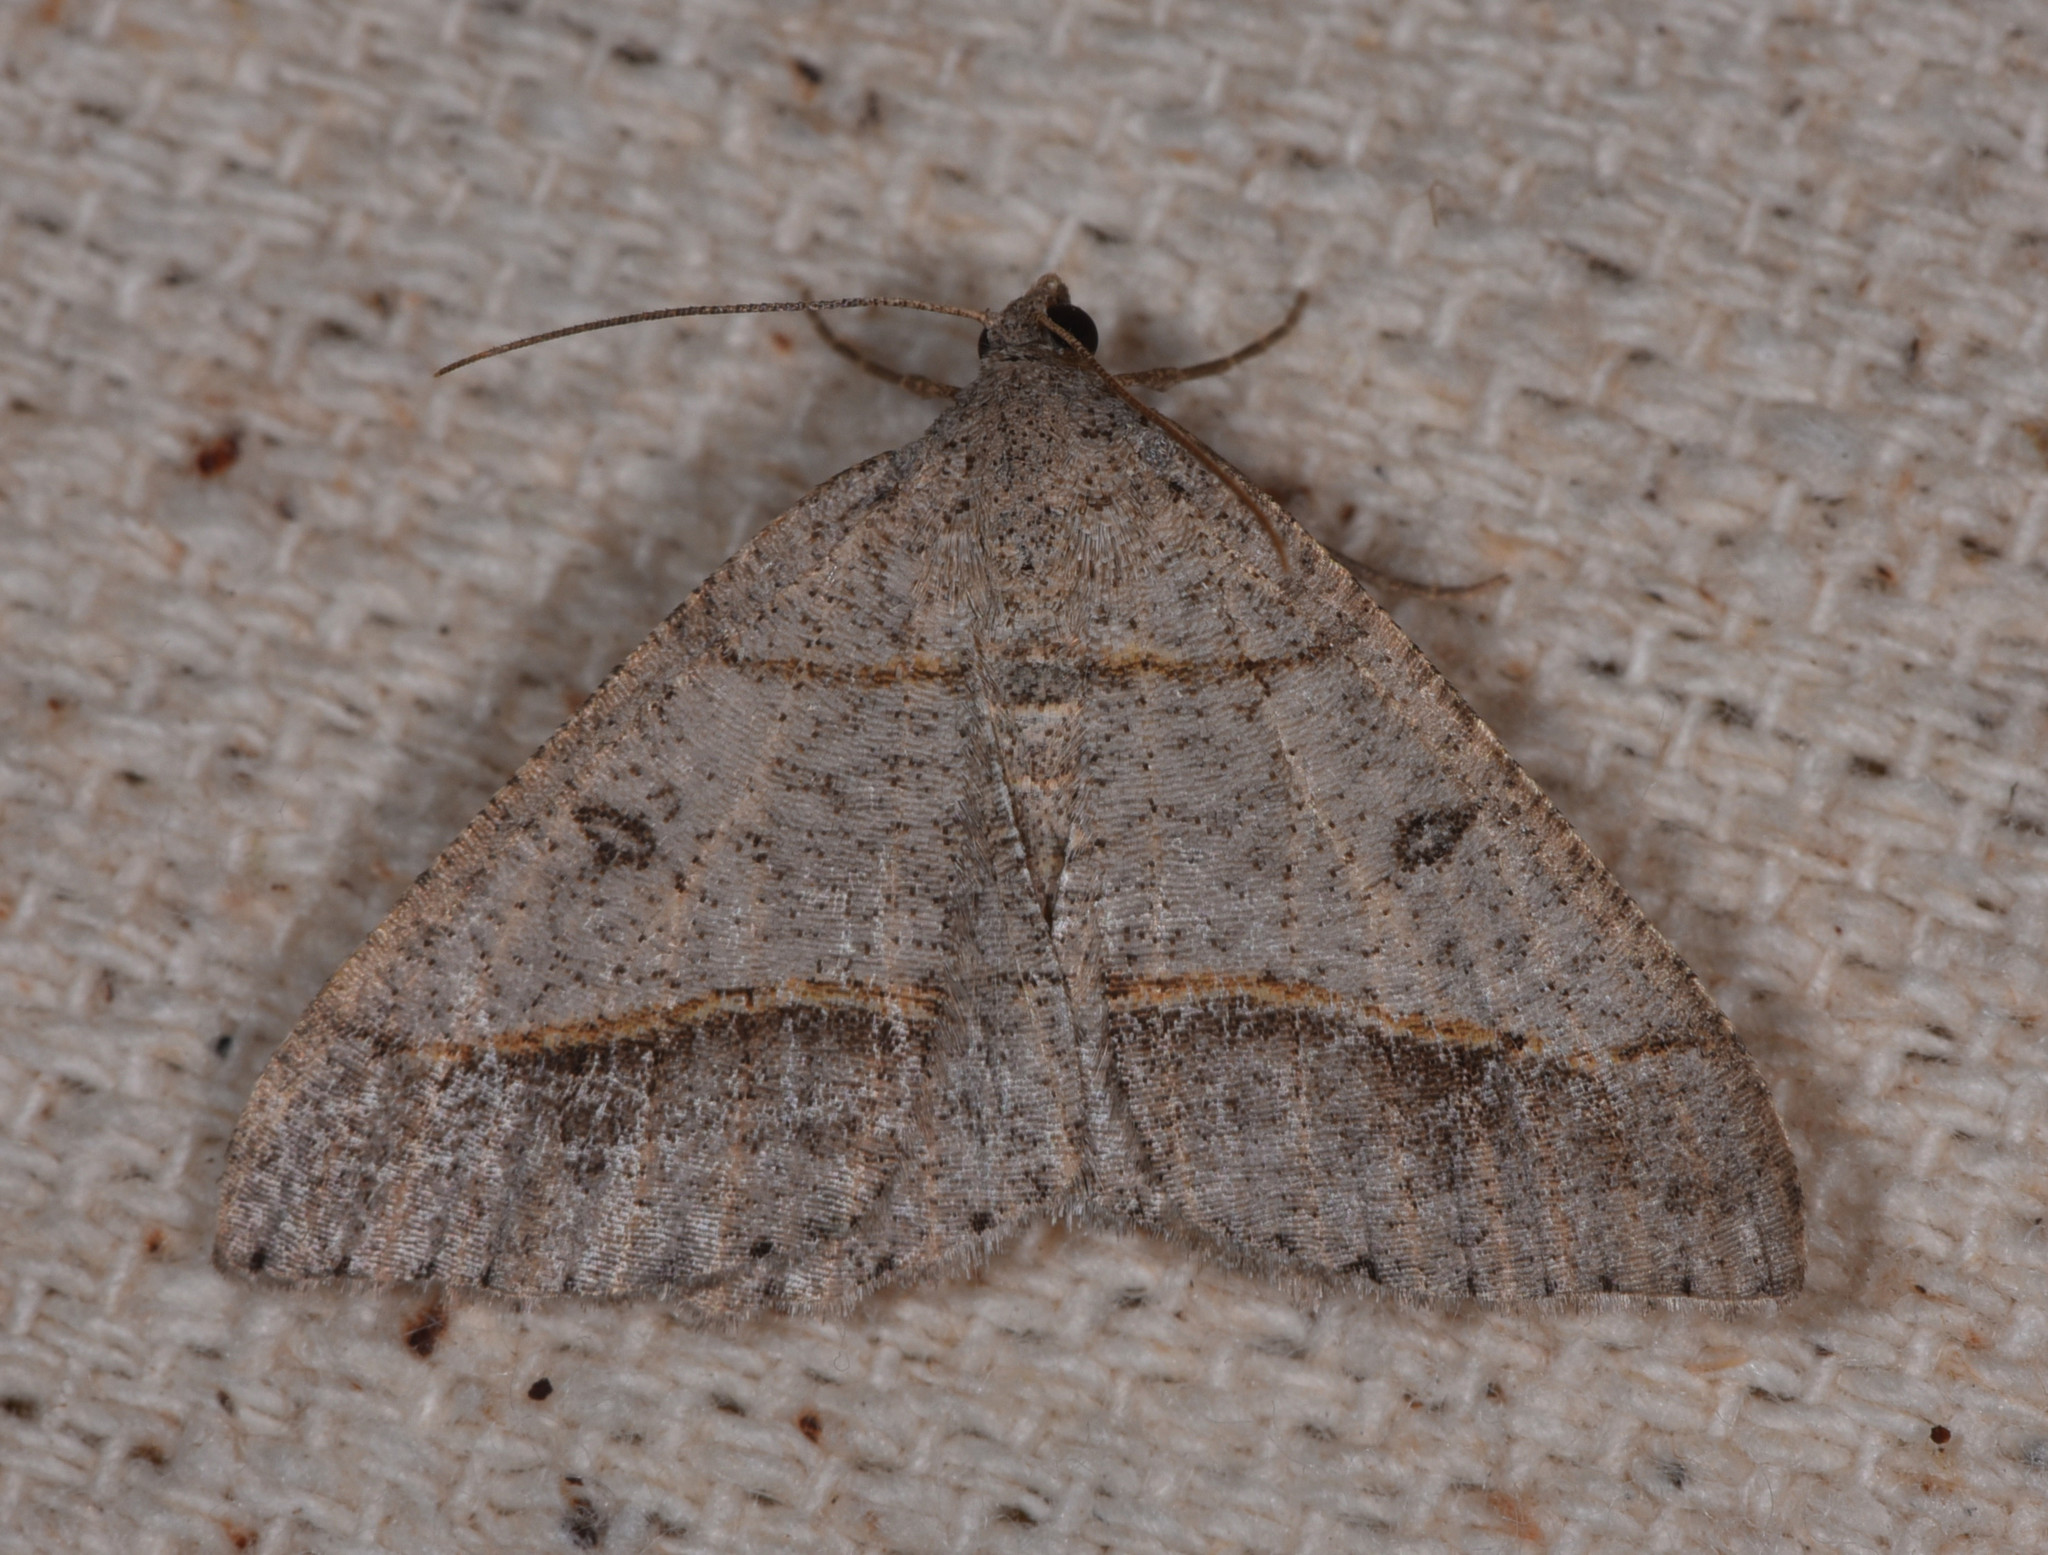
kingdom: Animalia
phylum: Arthropoda
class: Insecta
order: Lepidoptera
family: Geometridae
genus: Digrammia
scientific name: Digrammia neptaria
